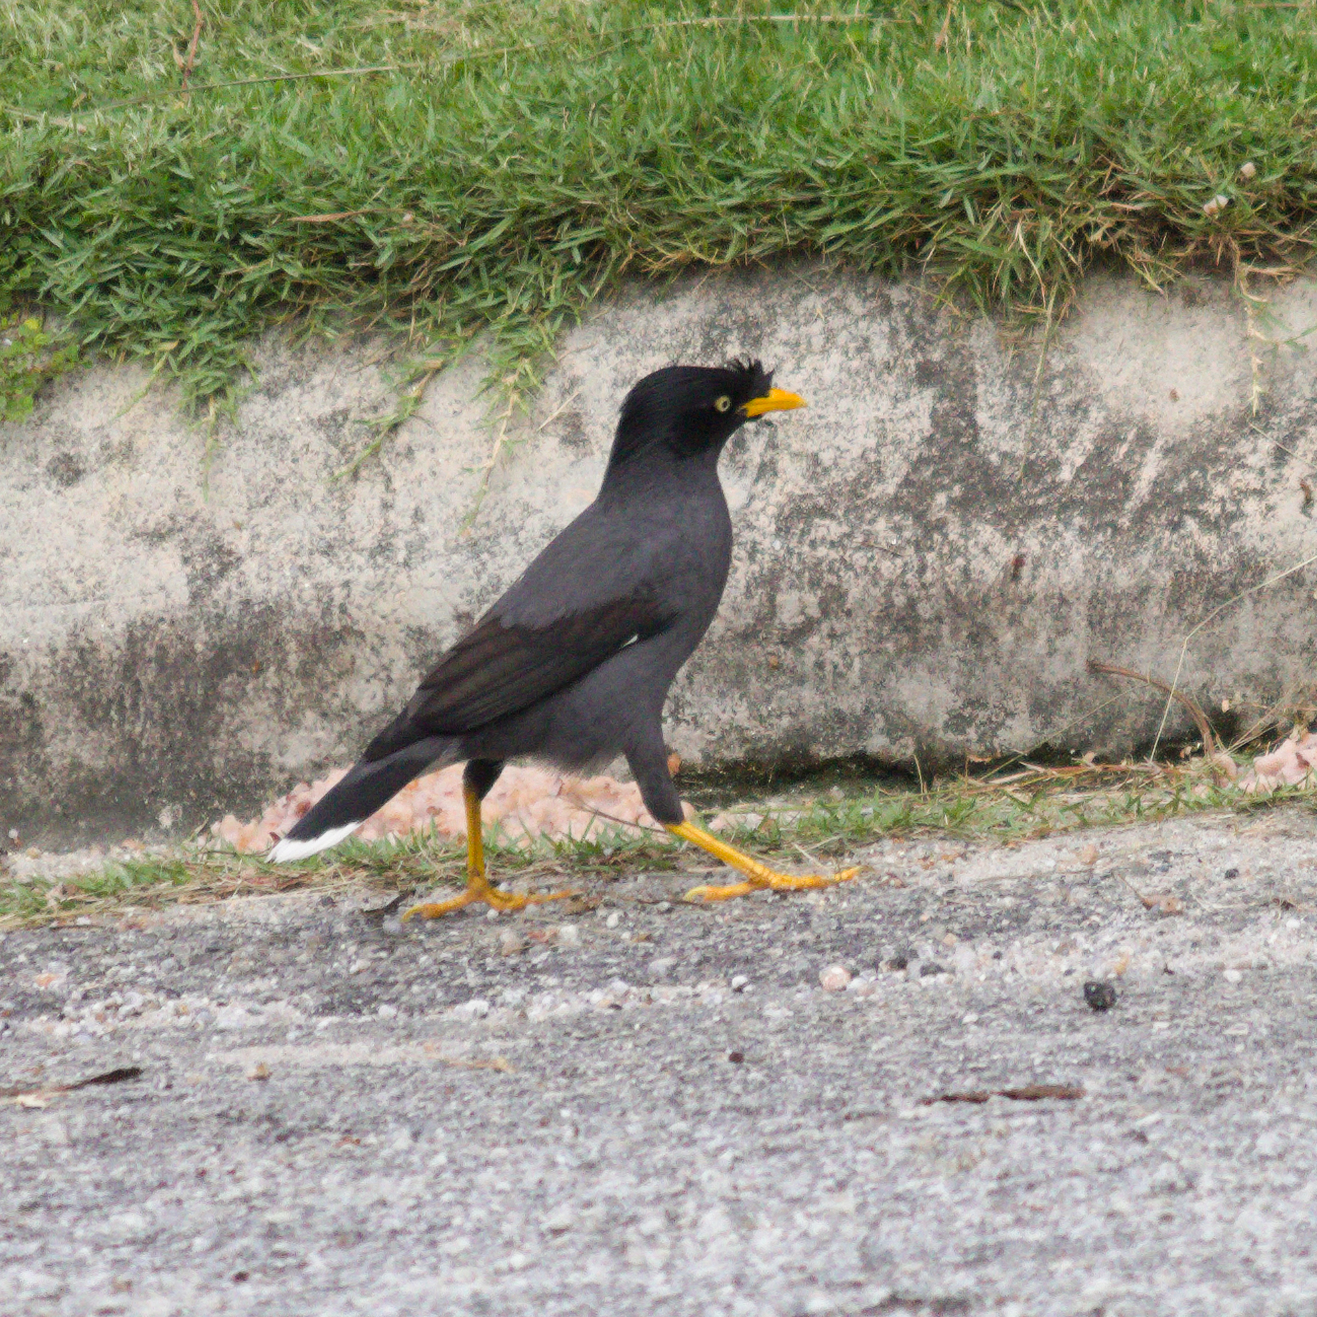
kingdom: Animalia
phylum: Chordata
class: Aves
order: Passeriformes
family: Sturnidae
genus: Acridotheres
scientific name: Acridotheres javanicus
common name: Javan myna
